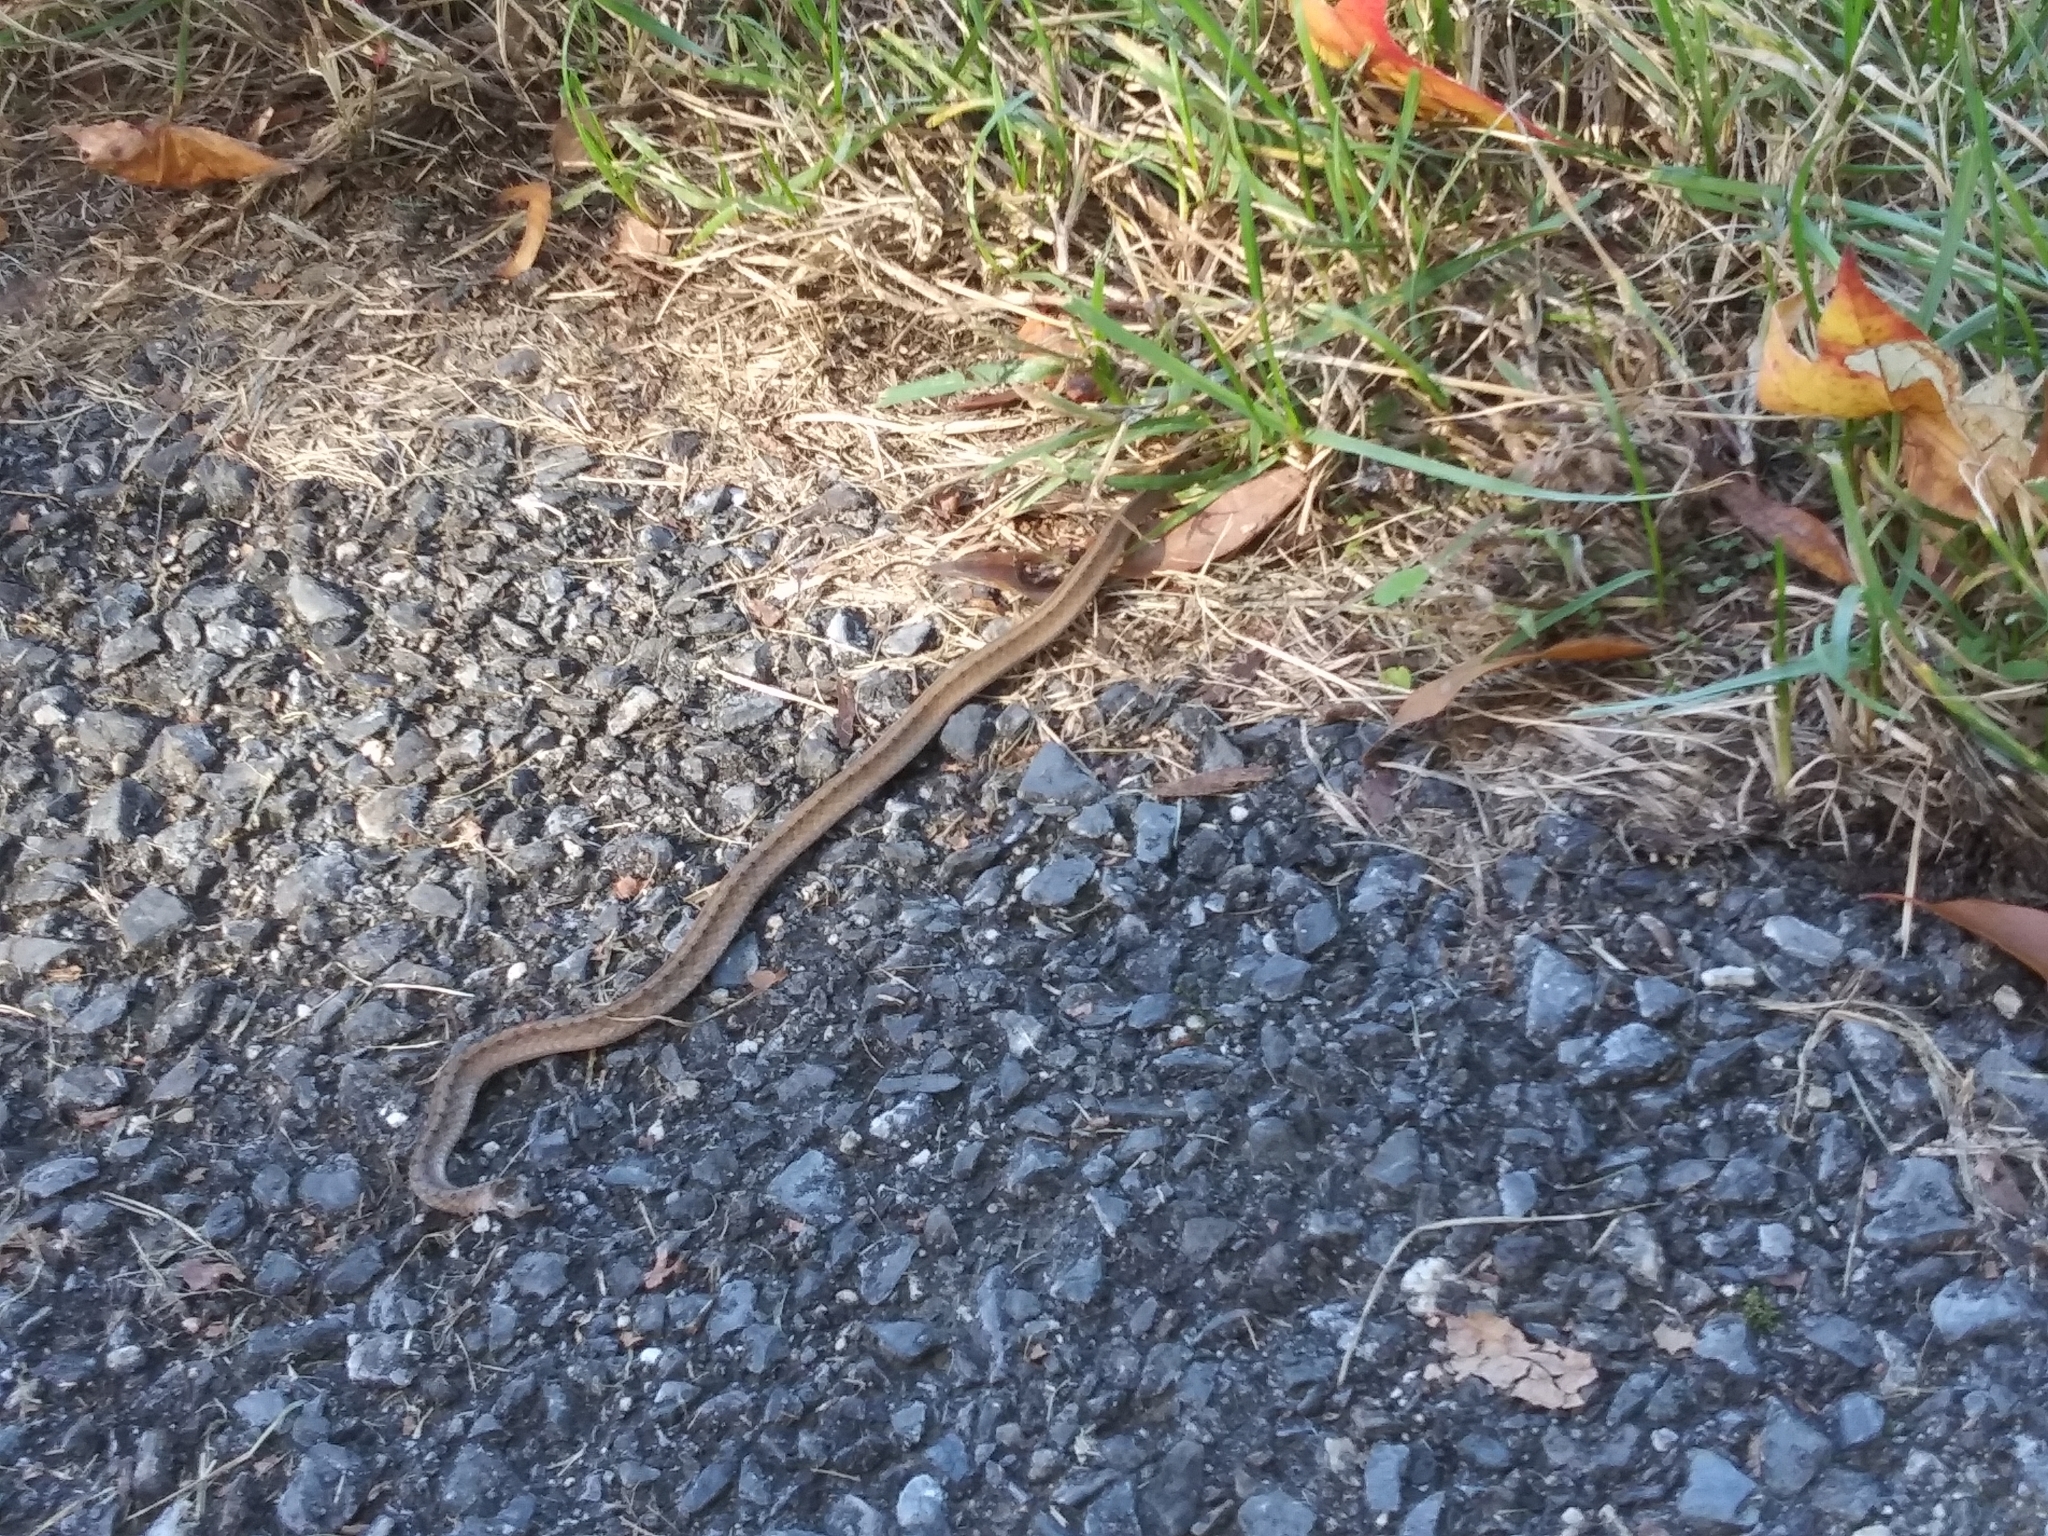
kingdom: Animalia
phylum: Chordata
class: Squamata
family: Colubridae
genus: Storeria
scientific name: Storeria dekayi
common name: (dekay’s) brown snake
